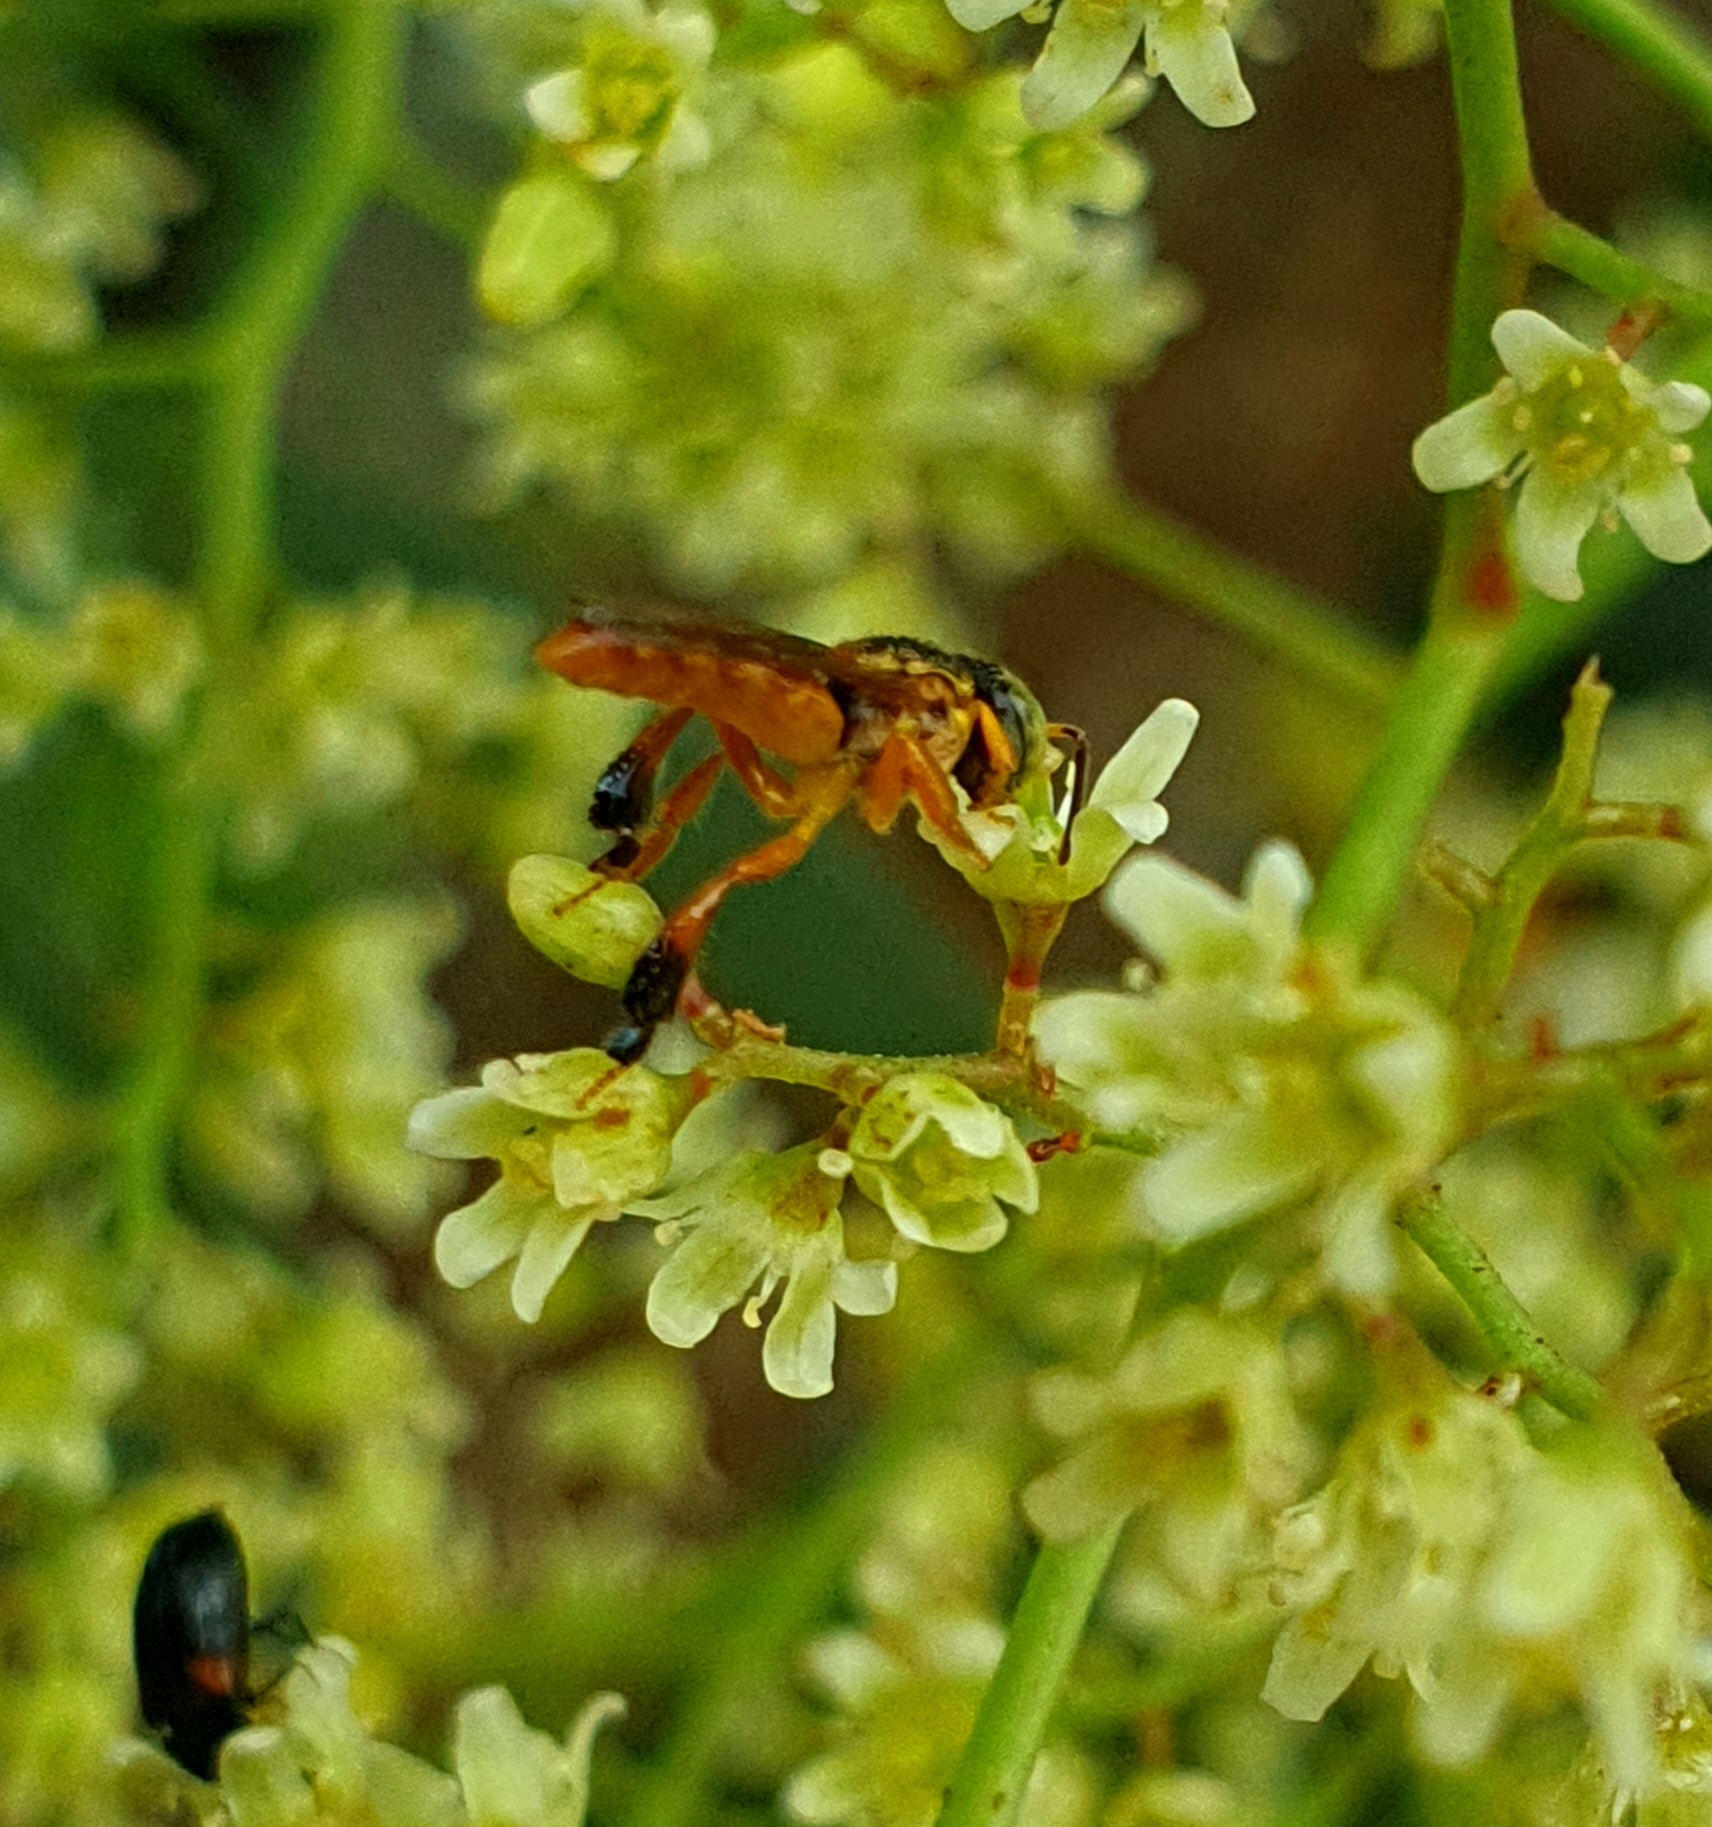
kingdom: Animalia
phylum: Arthropoda
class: Insecta
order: Hymenoptera
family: Apidae
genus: Tetragonisca
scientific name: Tetragonisca fiebrigi
